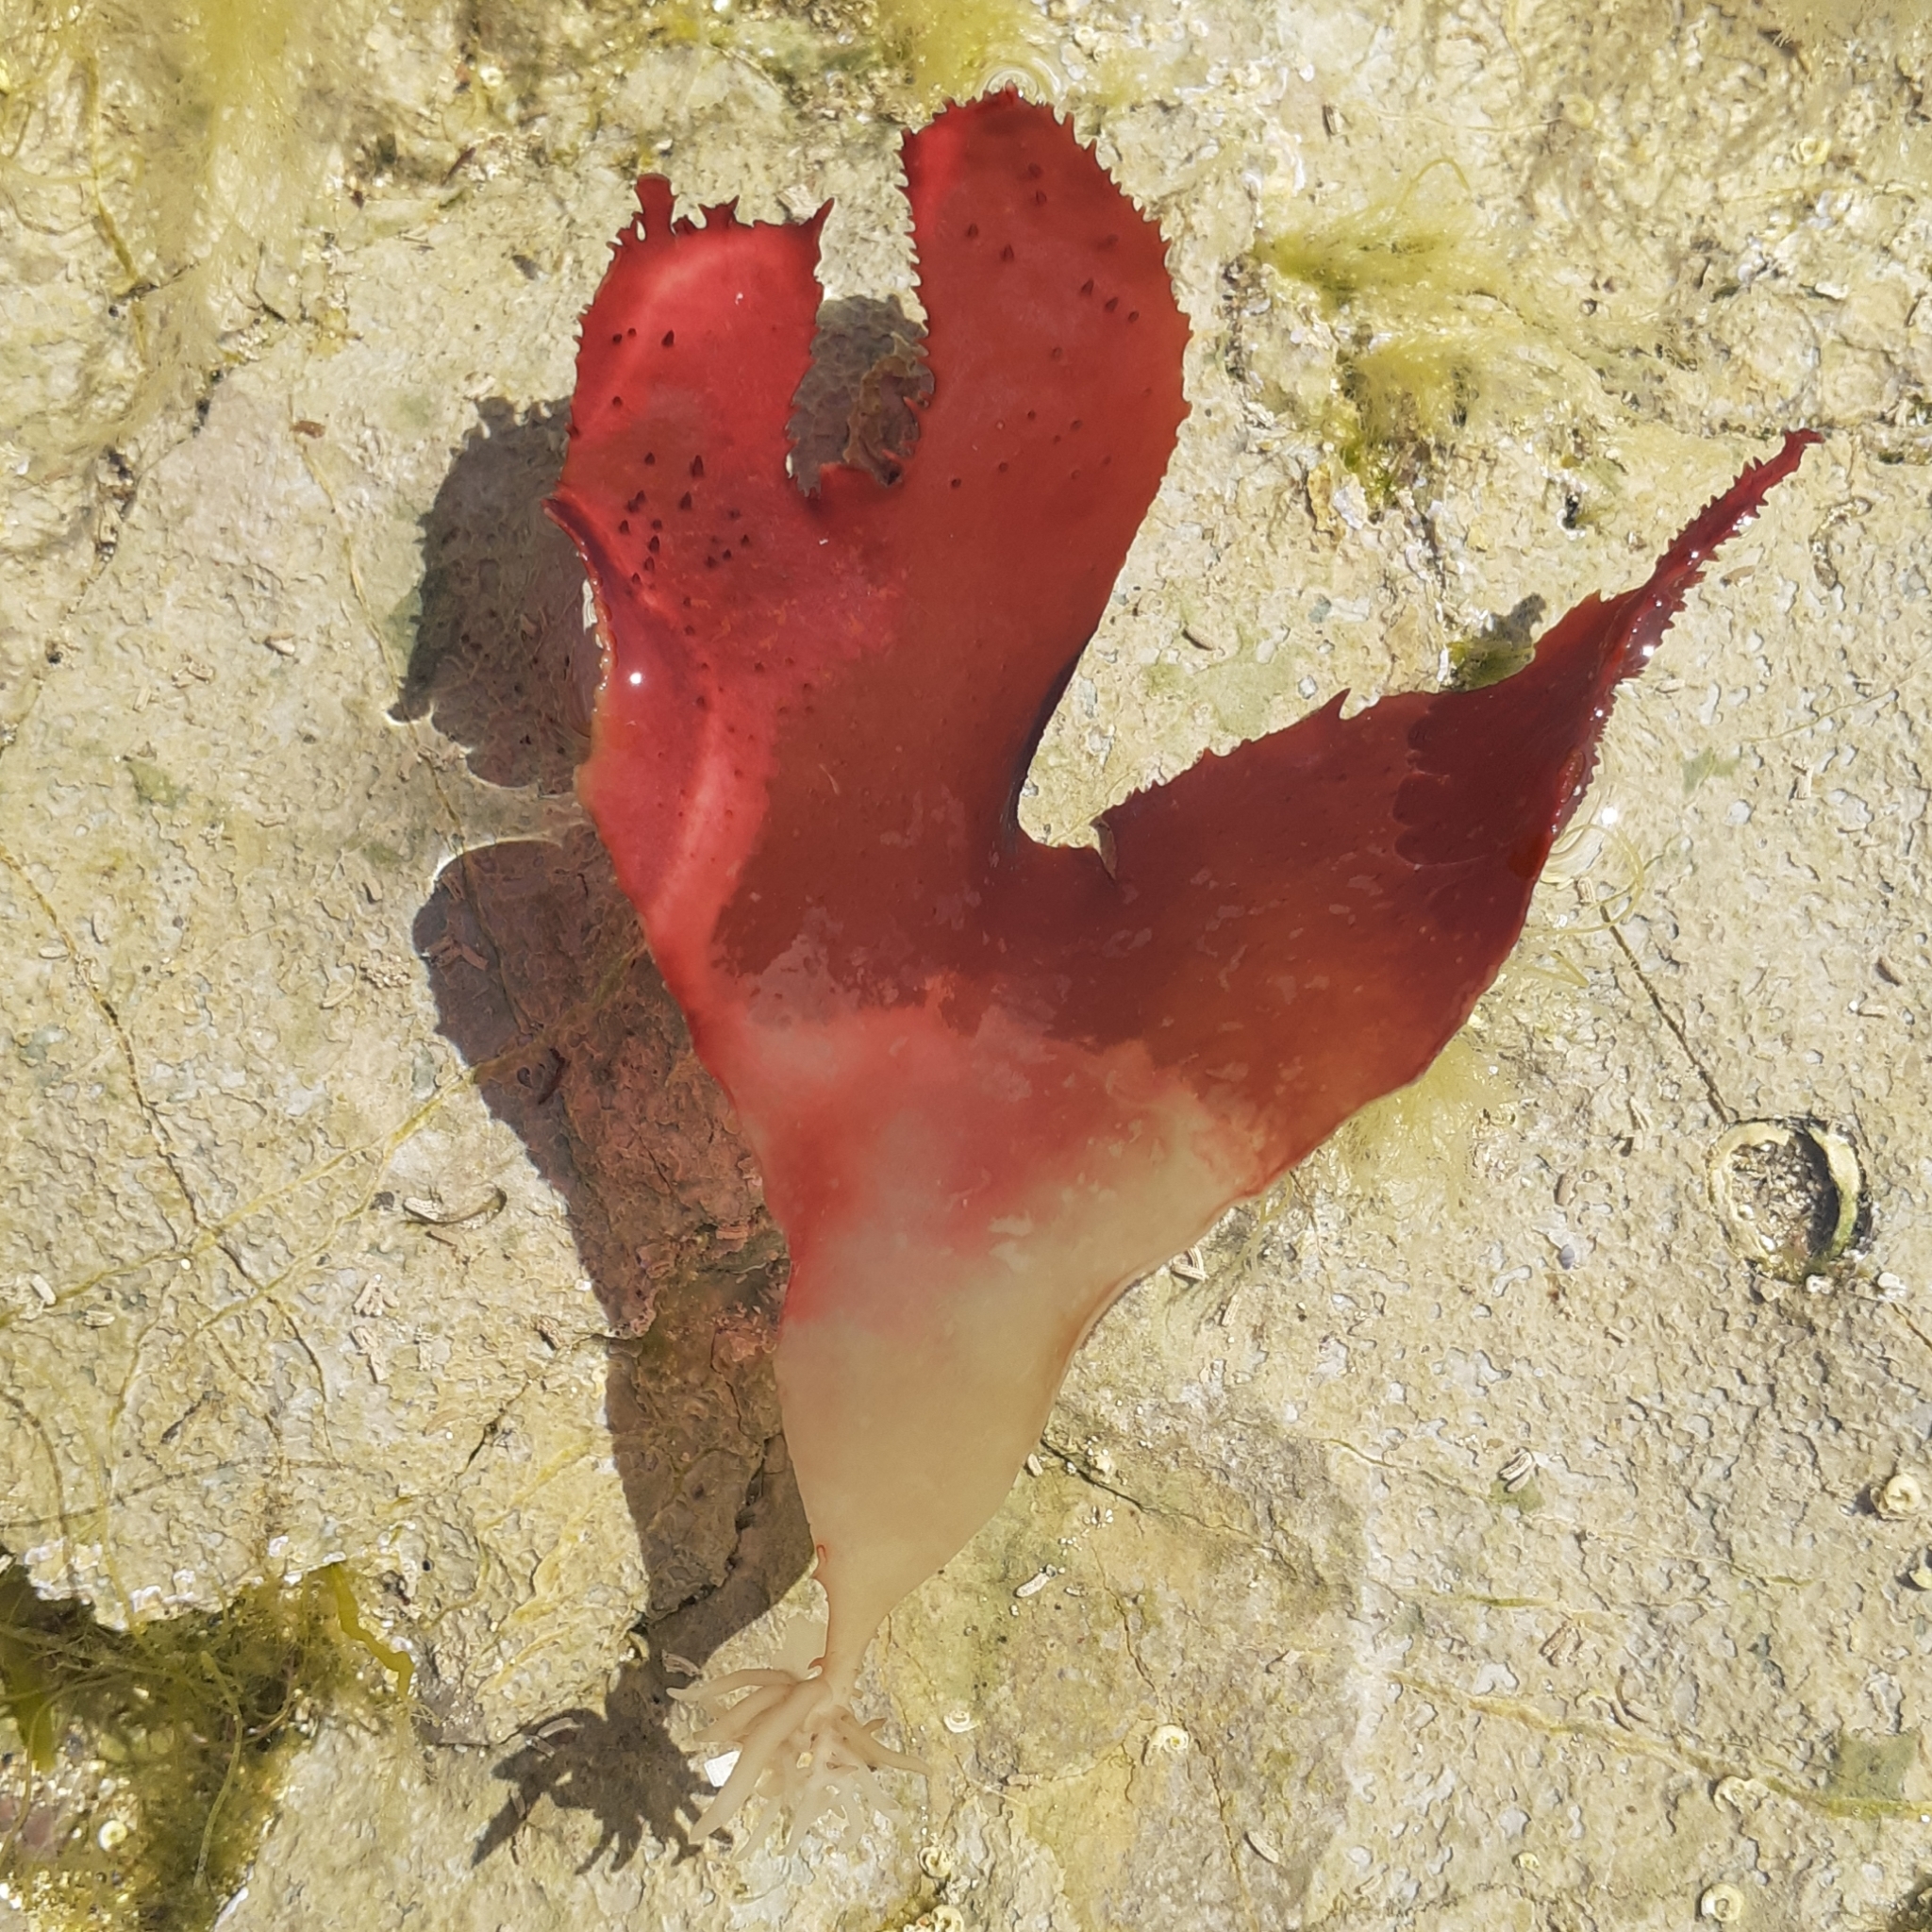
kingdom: Plantae
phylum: Rhodophyta
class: Florideophyceae
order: Gigartinales
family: Cystocloniaceae
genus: Calliblepharis
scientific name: Calliblepharis ciliata
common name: Eyelash weed
